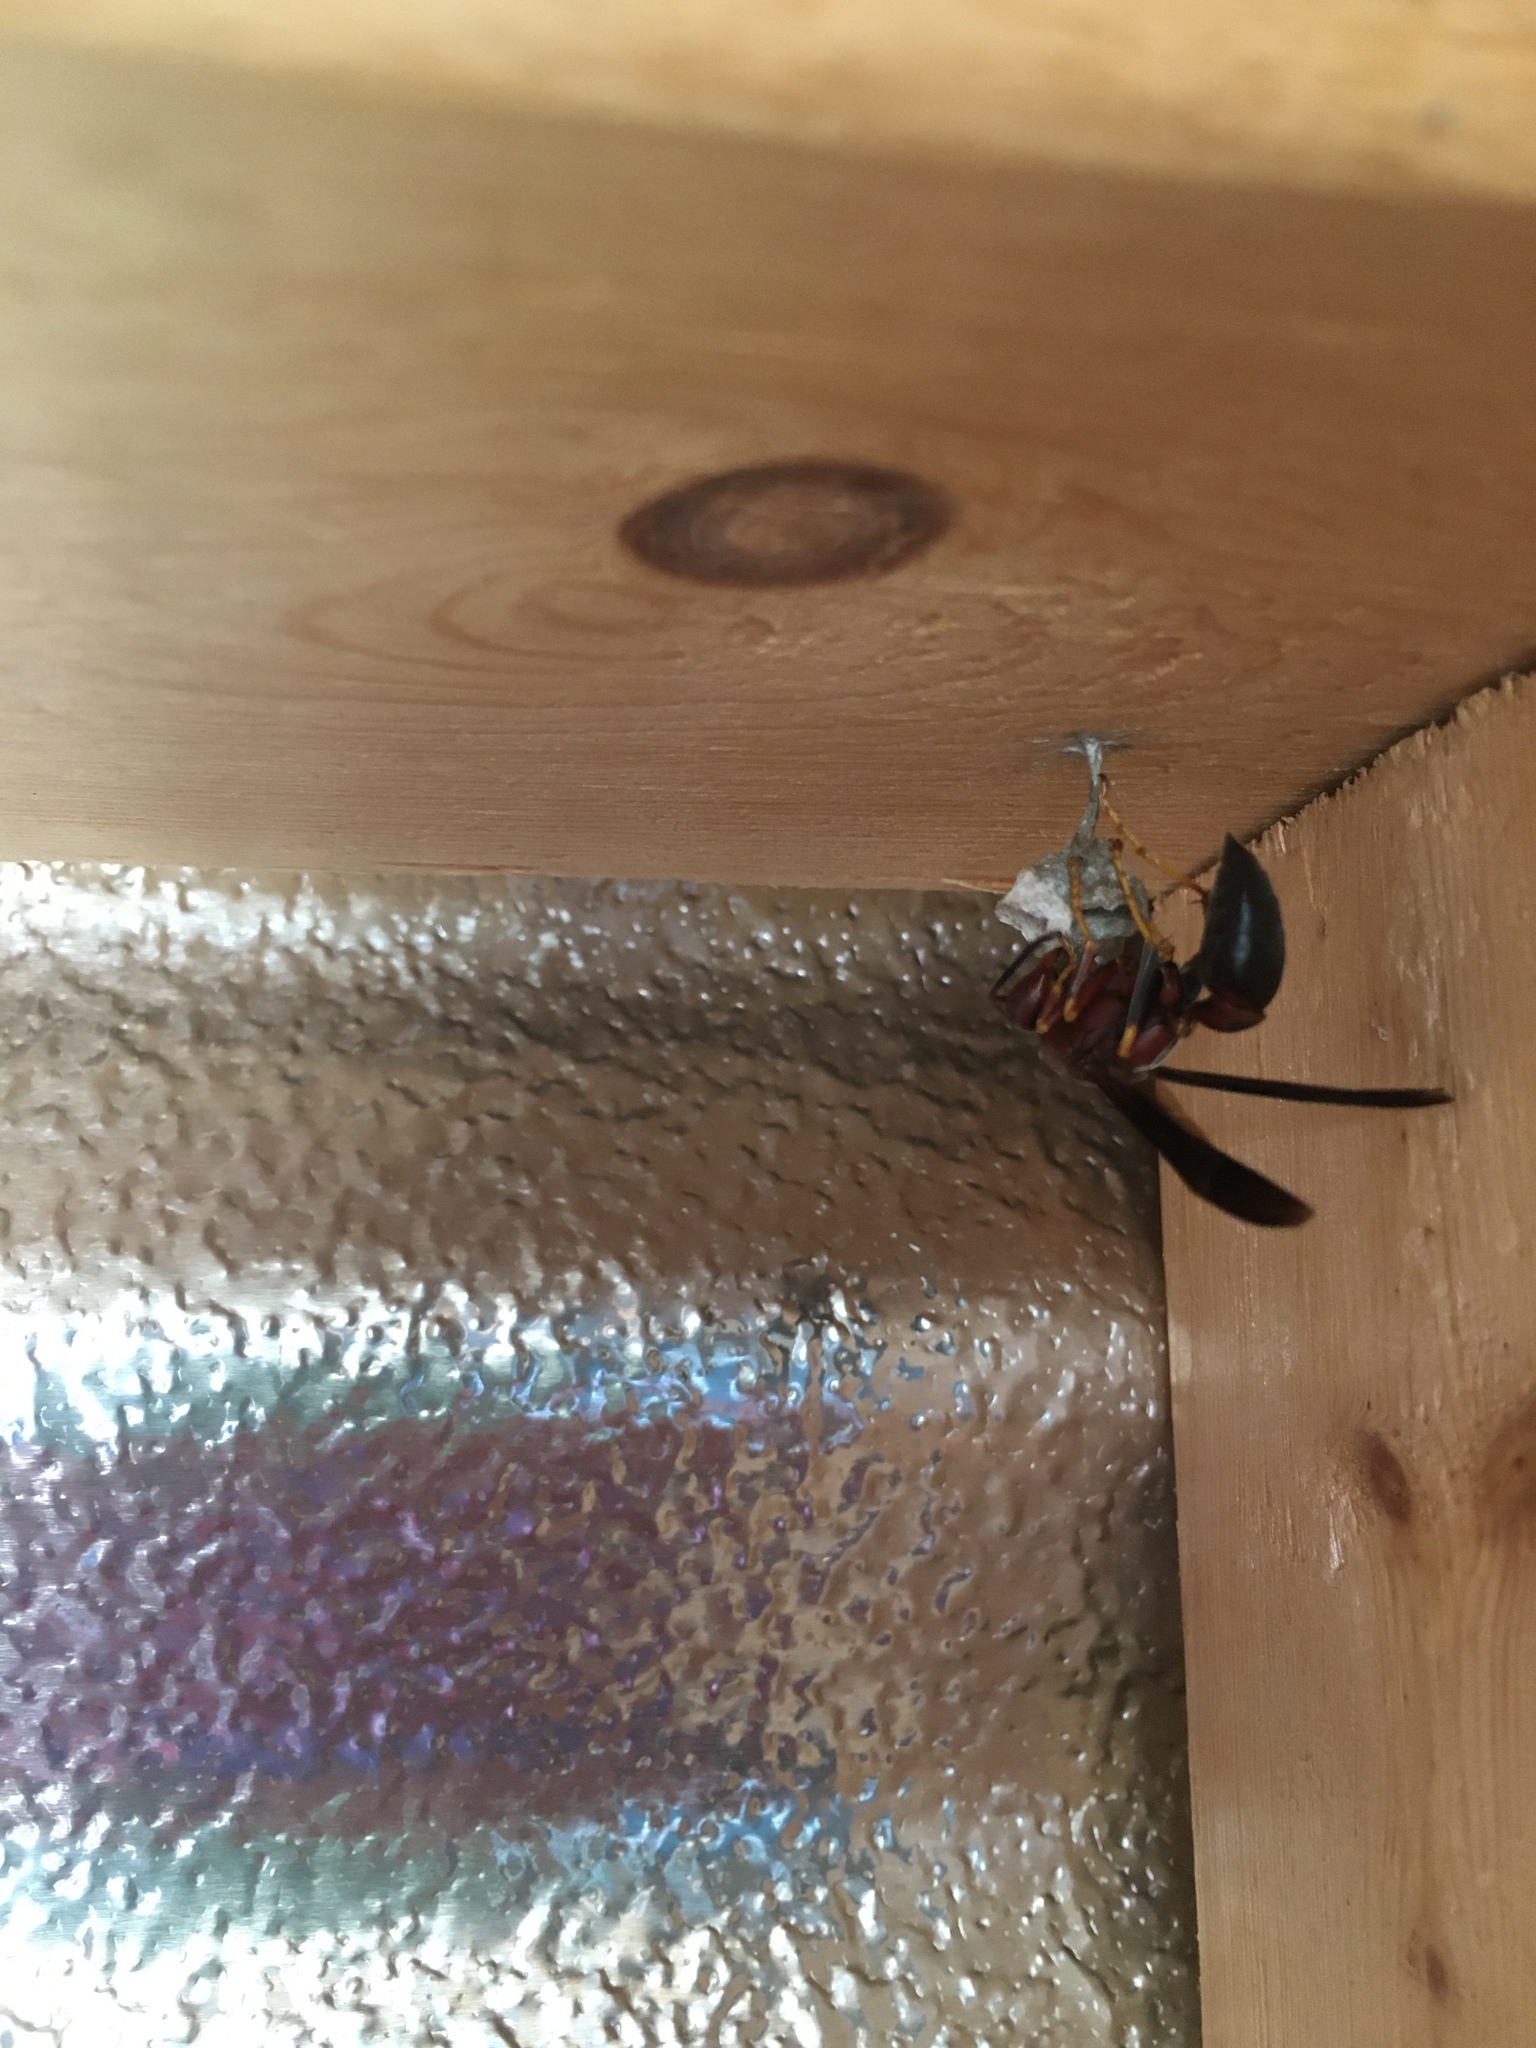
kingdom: Animalia
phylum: Arthropoda
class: Insecta
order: Hymenoptera
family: Eumenidae
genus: Polistes
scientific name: Polistes metricus
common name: Metric paper wasp
